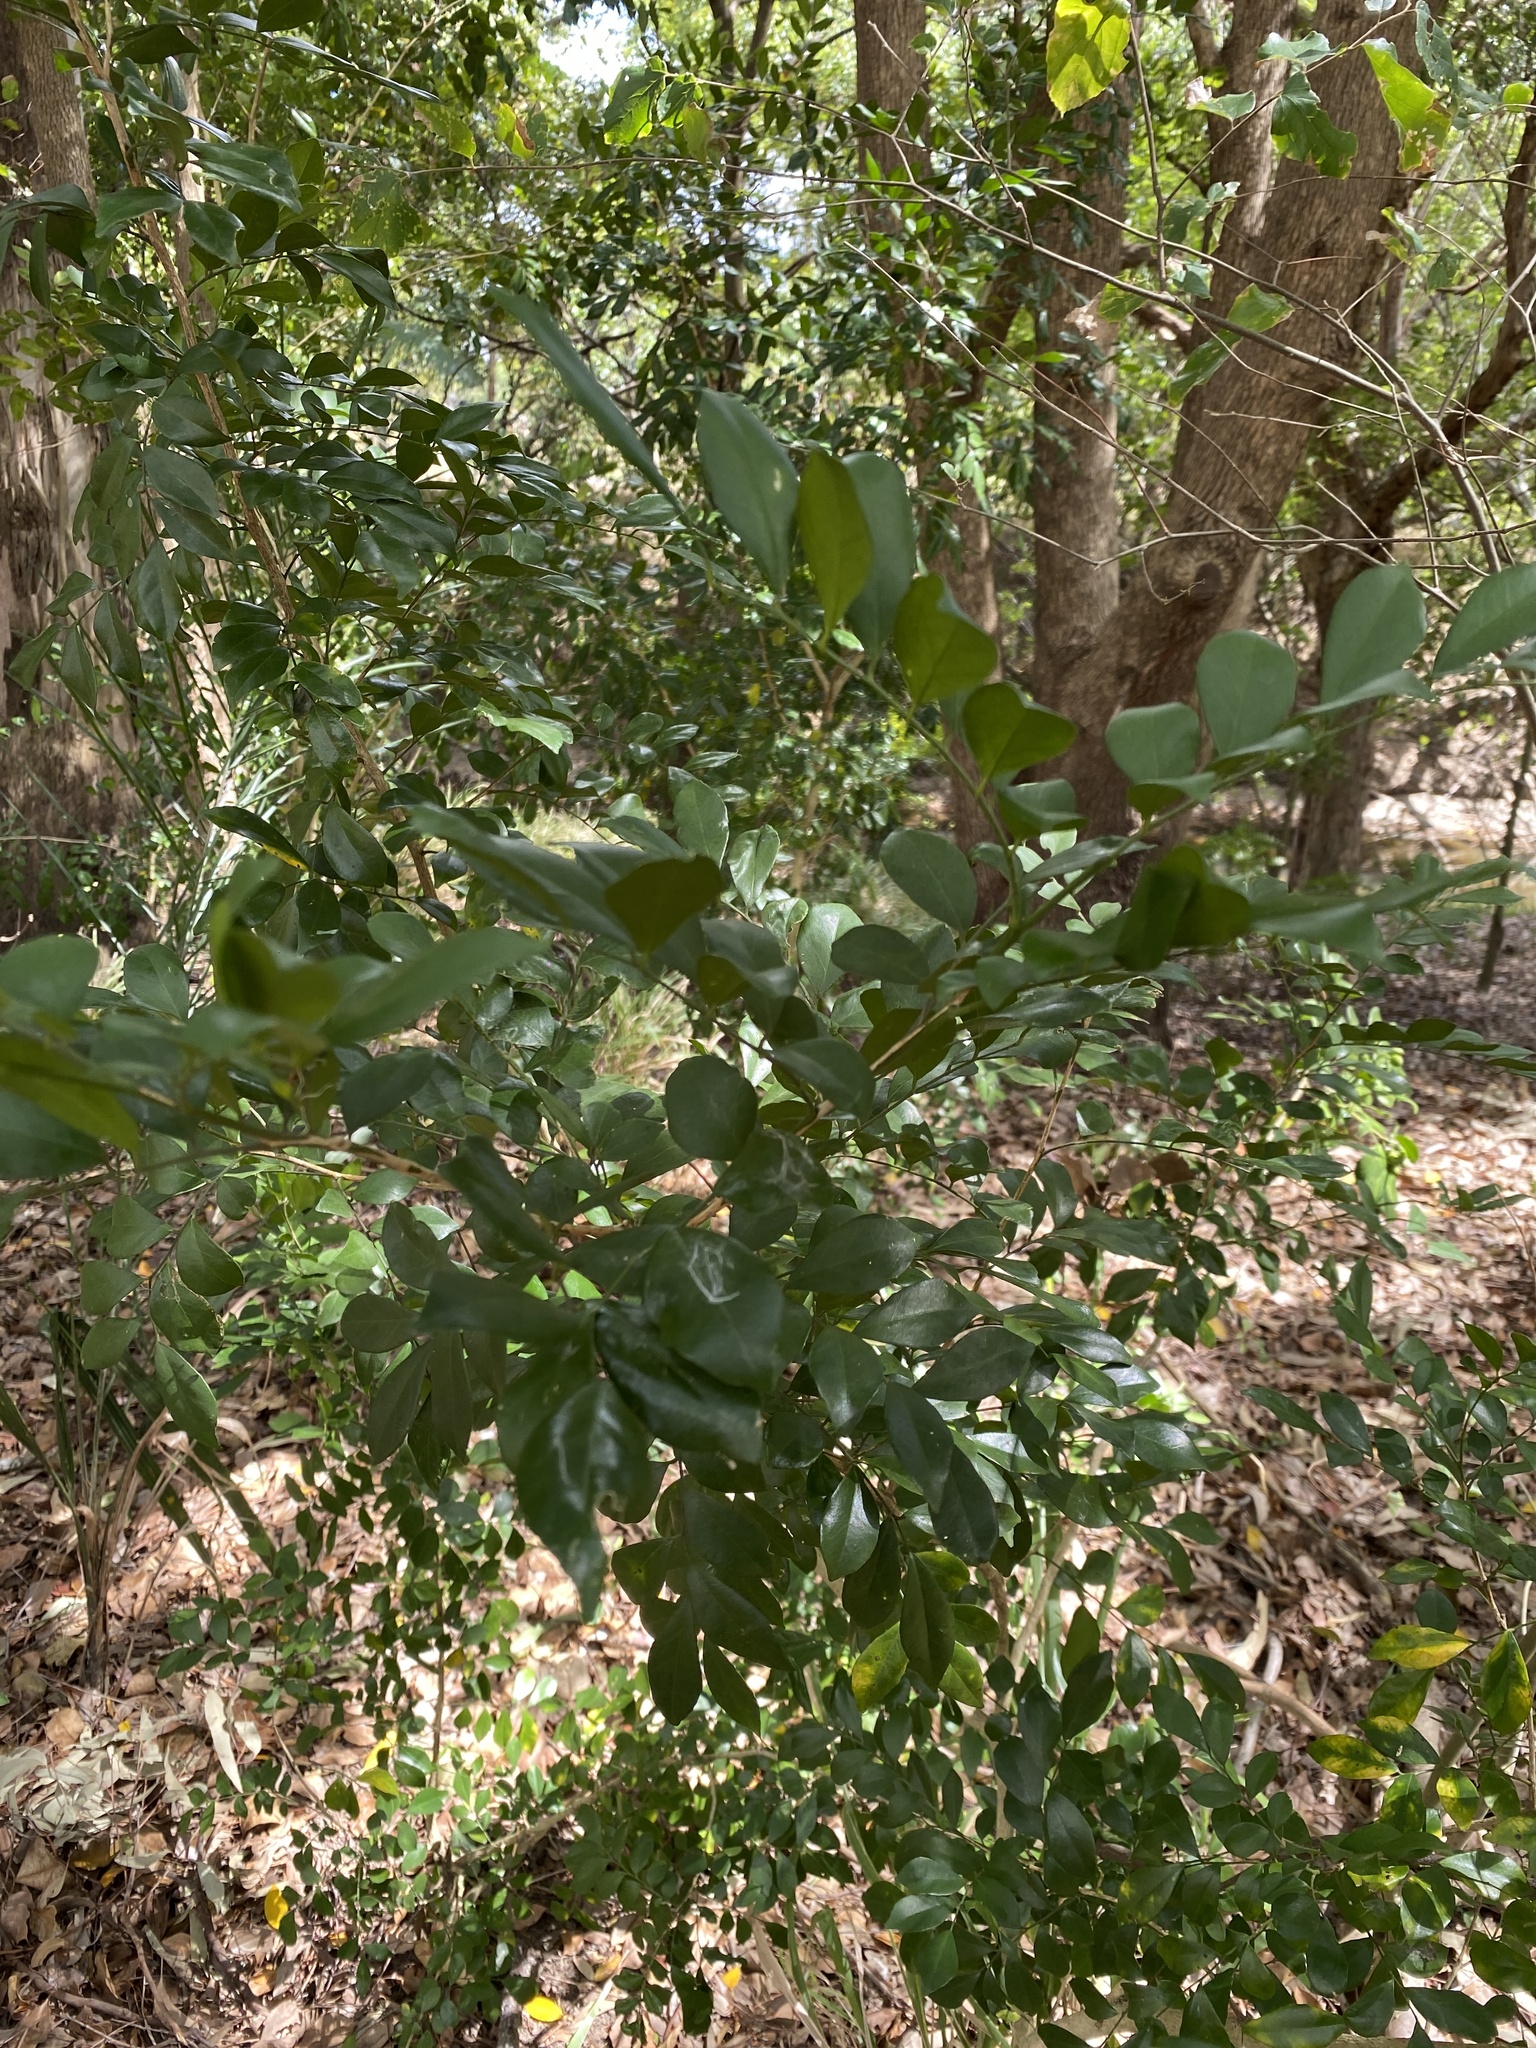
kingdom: Plantae
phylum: Tracheophyta
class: Magnoliopsida
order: Sapindales
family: Rutaceae
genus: Murraya
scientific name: Murraya paniculata
